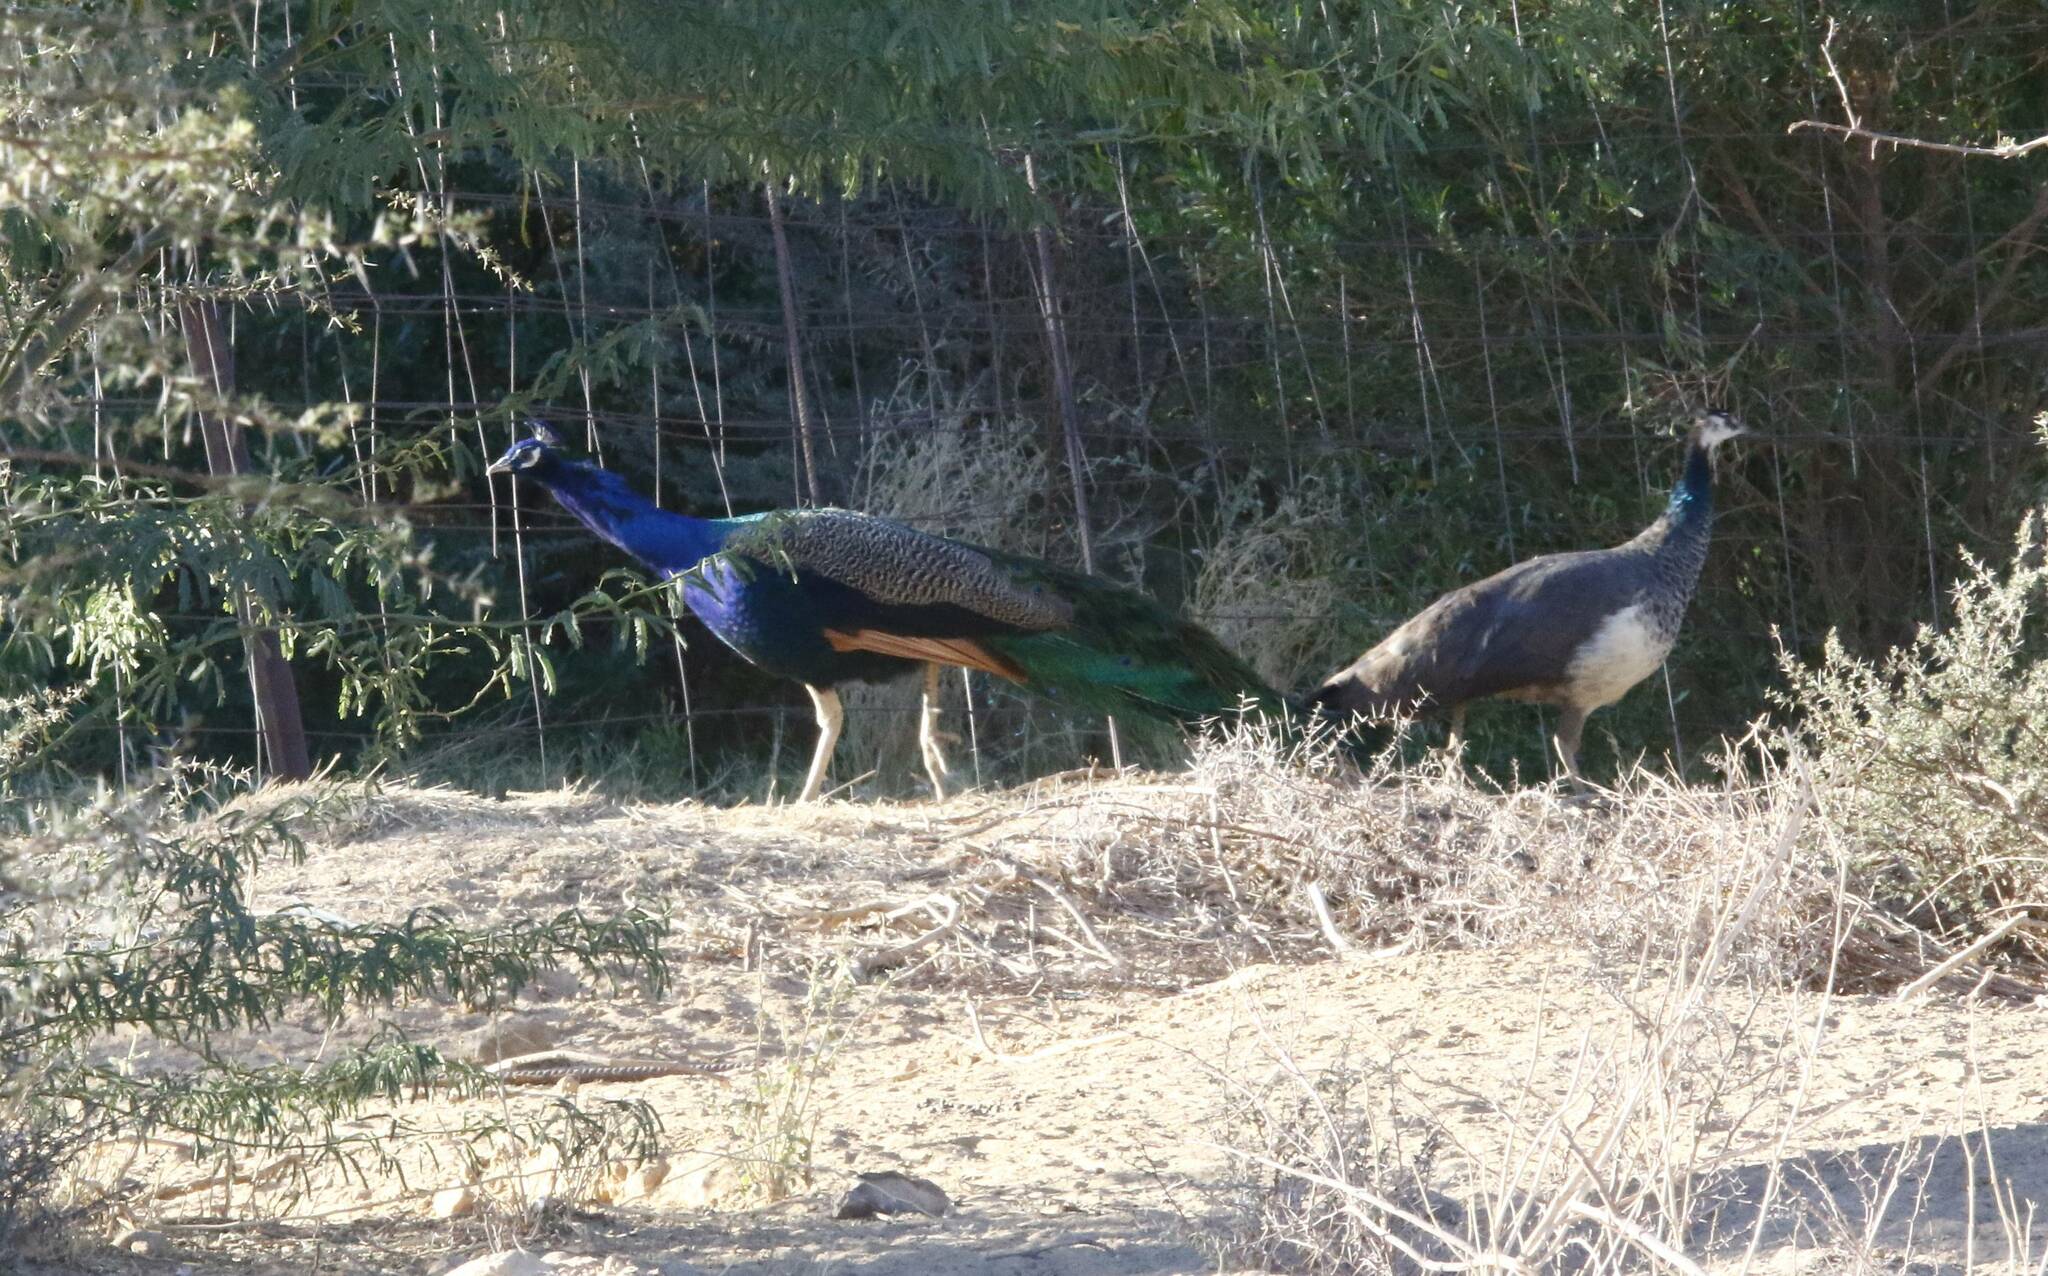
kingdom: Animalia
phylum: Chordata
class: Aves
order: Galliformes
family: Phasianidae
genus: Pavo
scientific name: Pavo cristatus
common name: Indian peafowl
